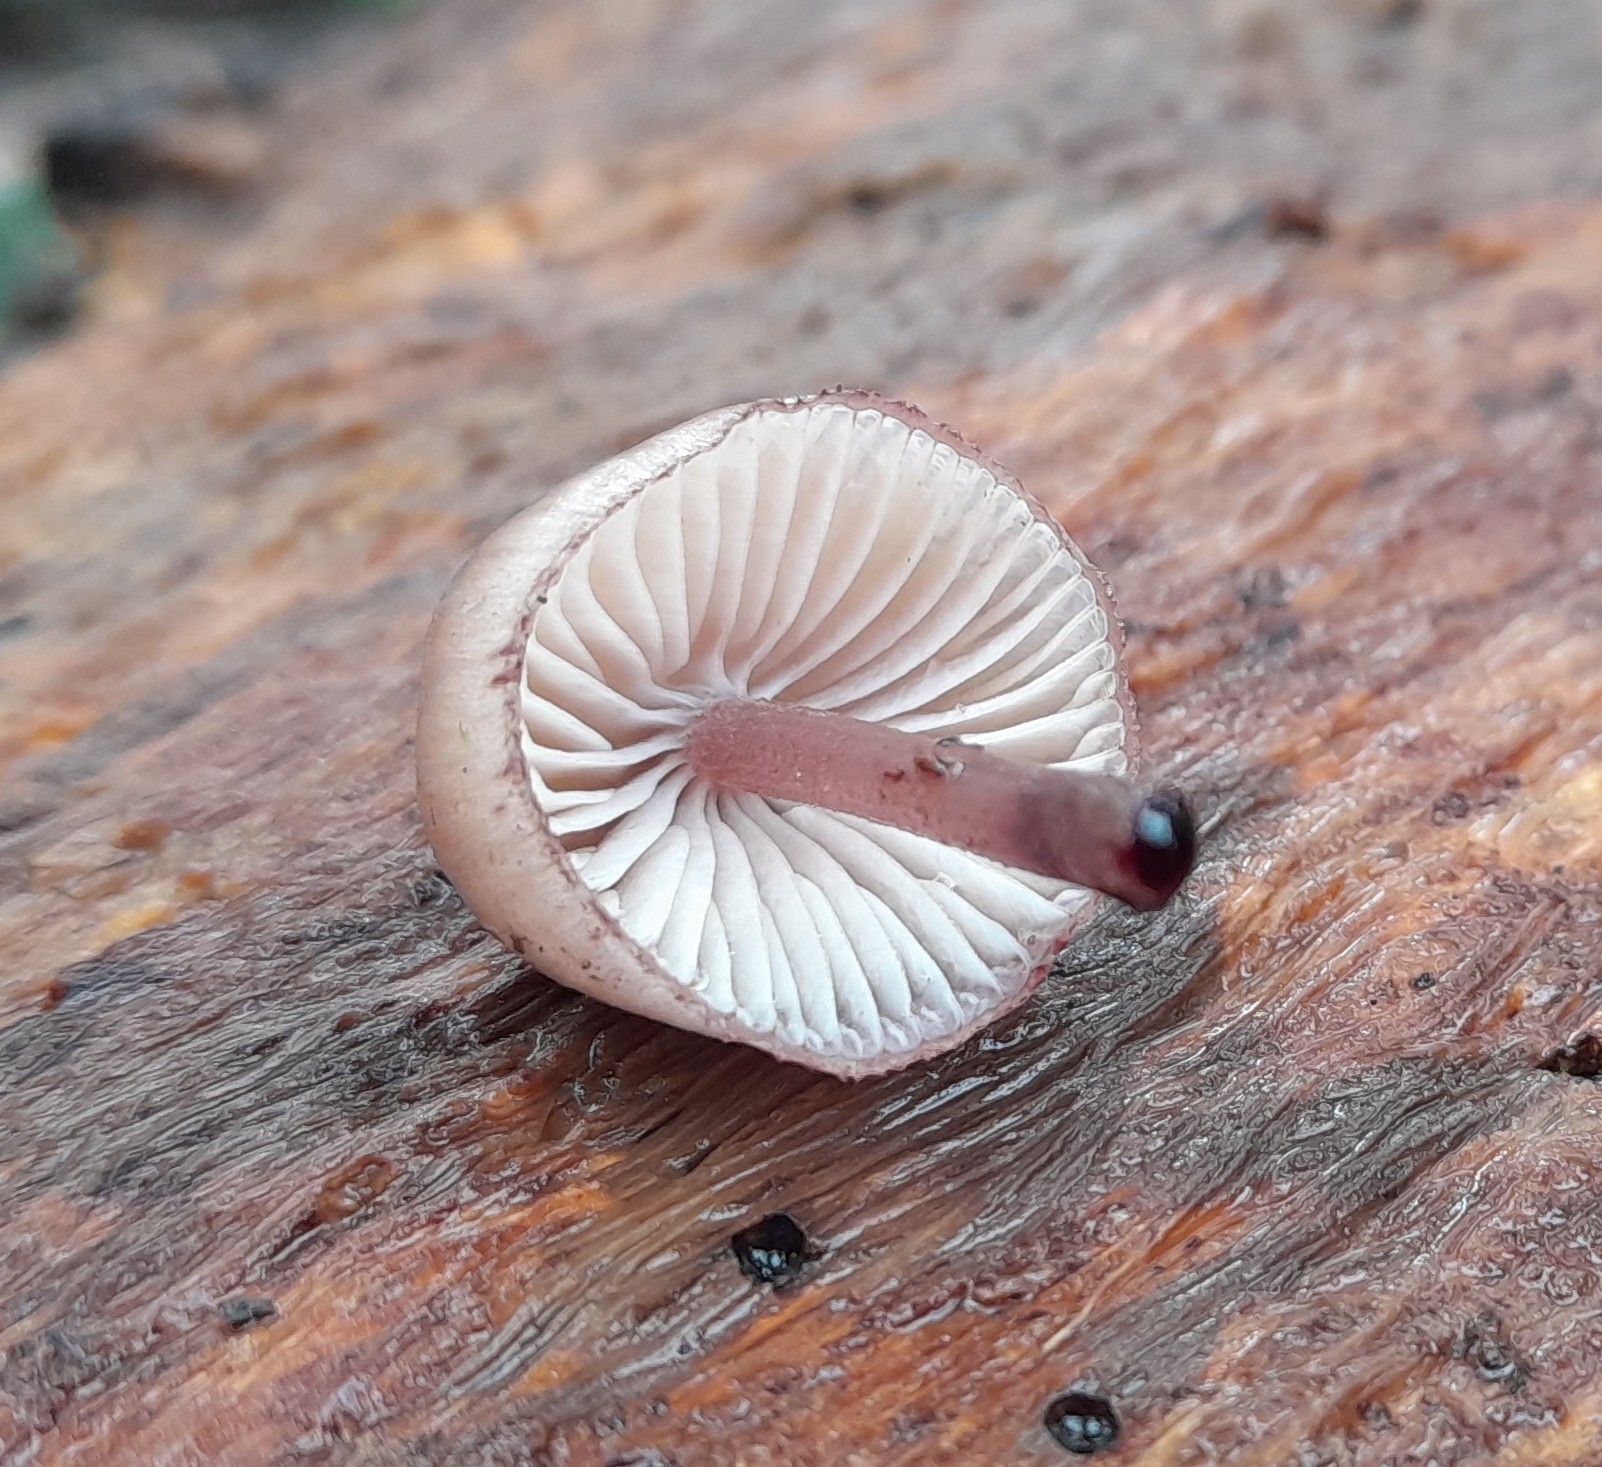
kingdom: Fungi
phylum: Basidiomycota
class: Agaricomycetes
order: Agaricales
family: Mycenaceae
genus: Mycena
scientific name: Mycena haematopus
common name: Burgundydrop bonnet
